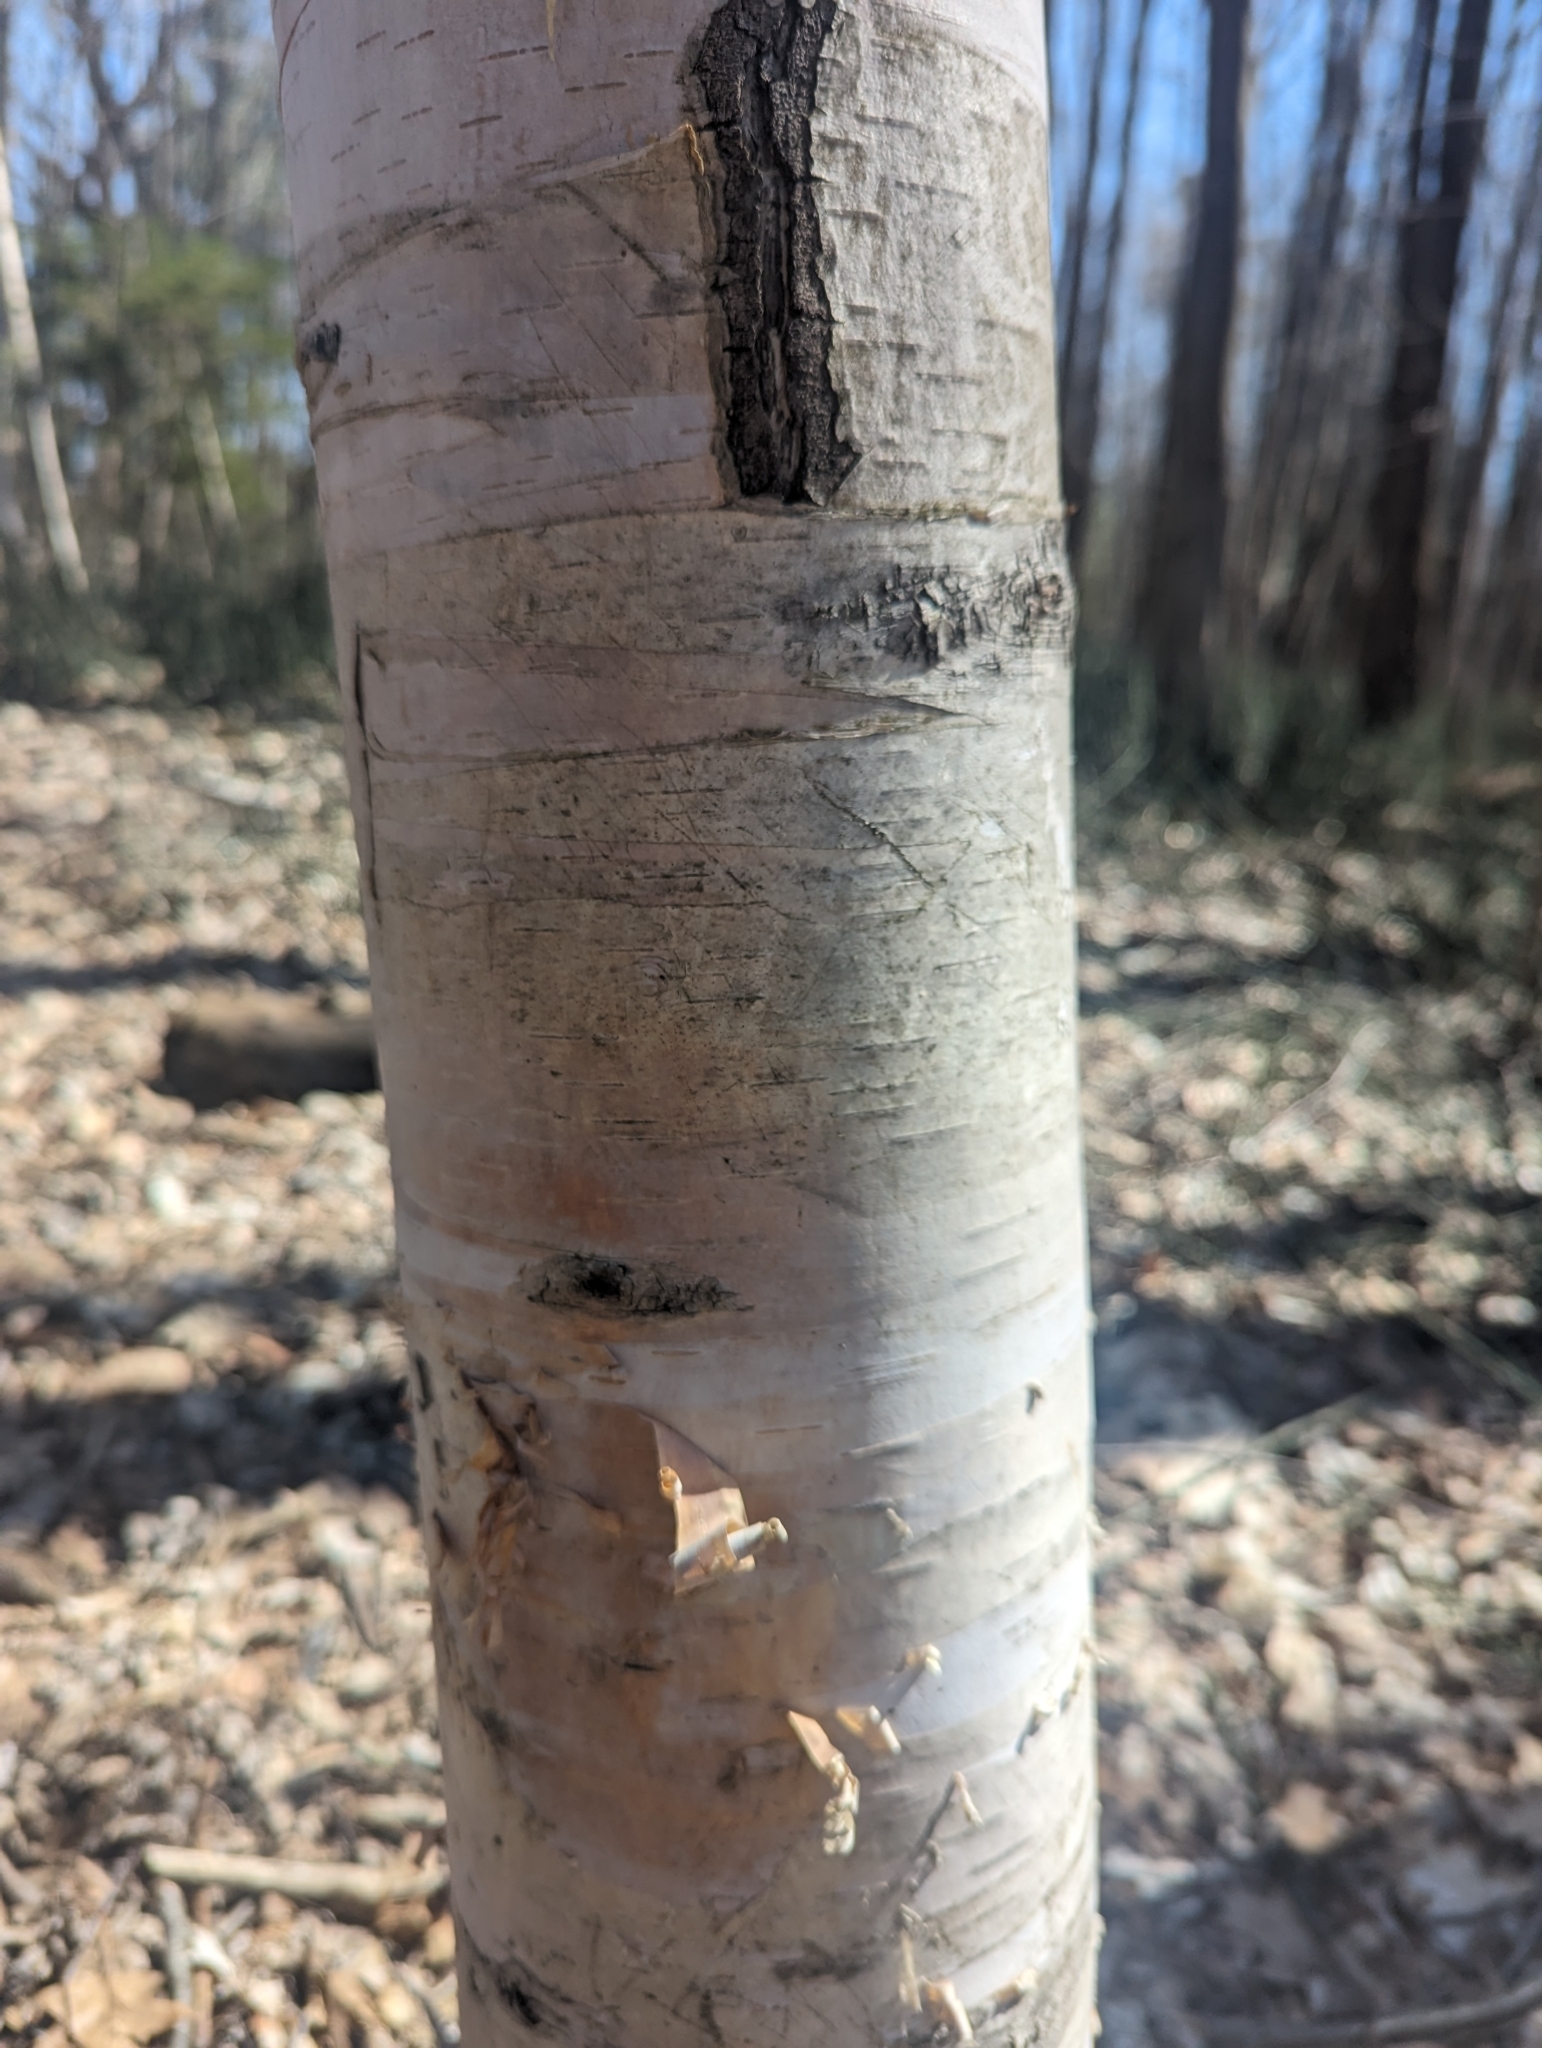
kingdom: Plantae
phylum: Tracheophyta
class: Magnoliopsida
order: Fagales
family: Betulaceae
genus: Betula
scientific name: Betula papyrifera
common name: Paper birch
